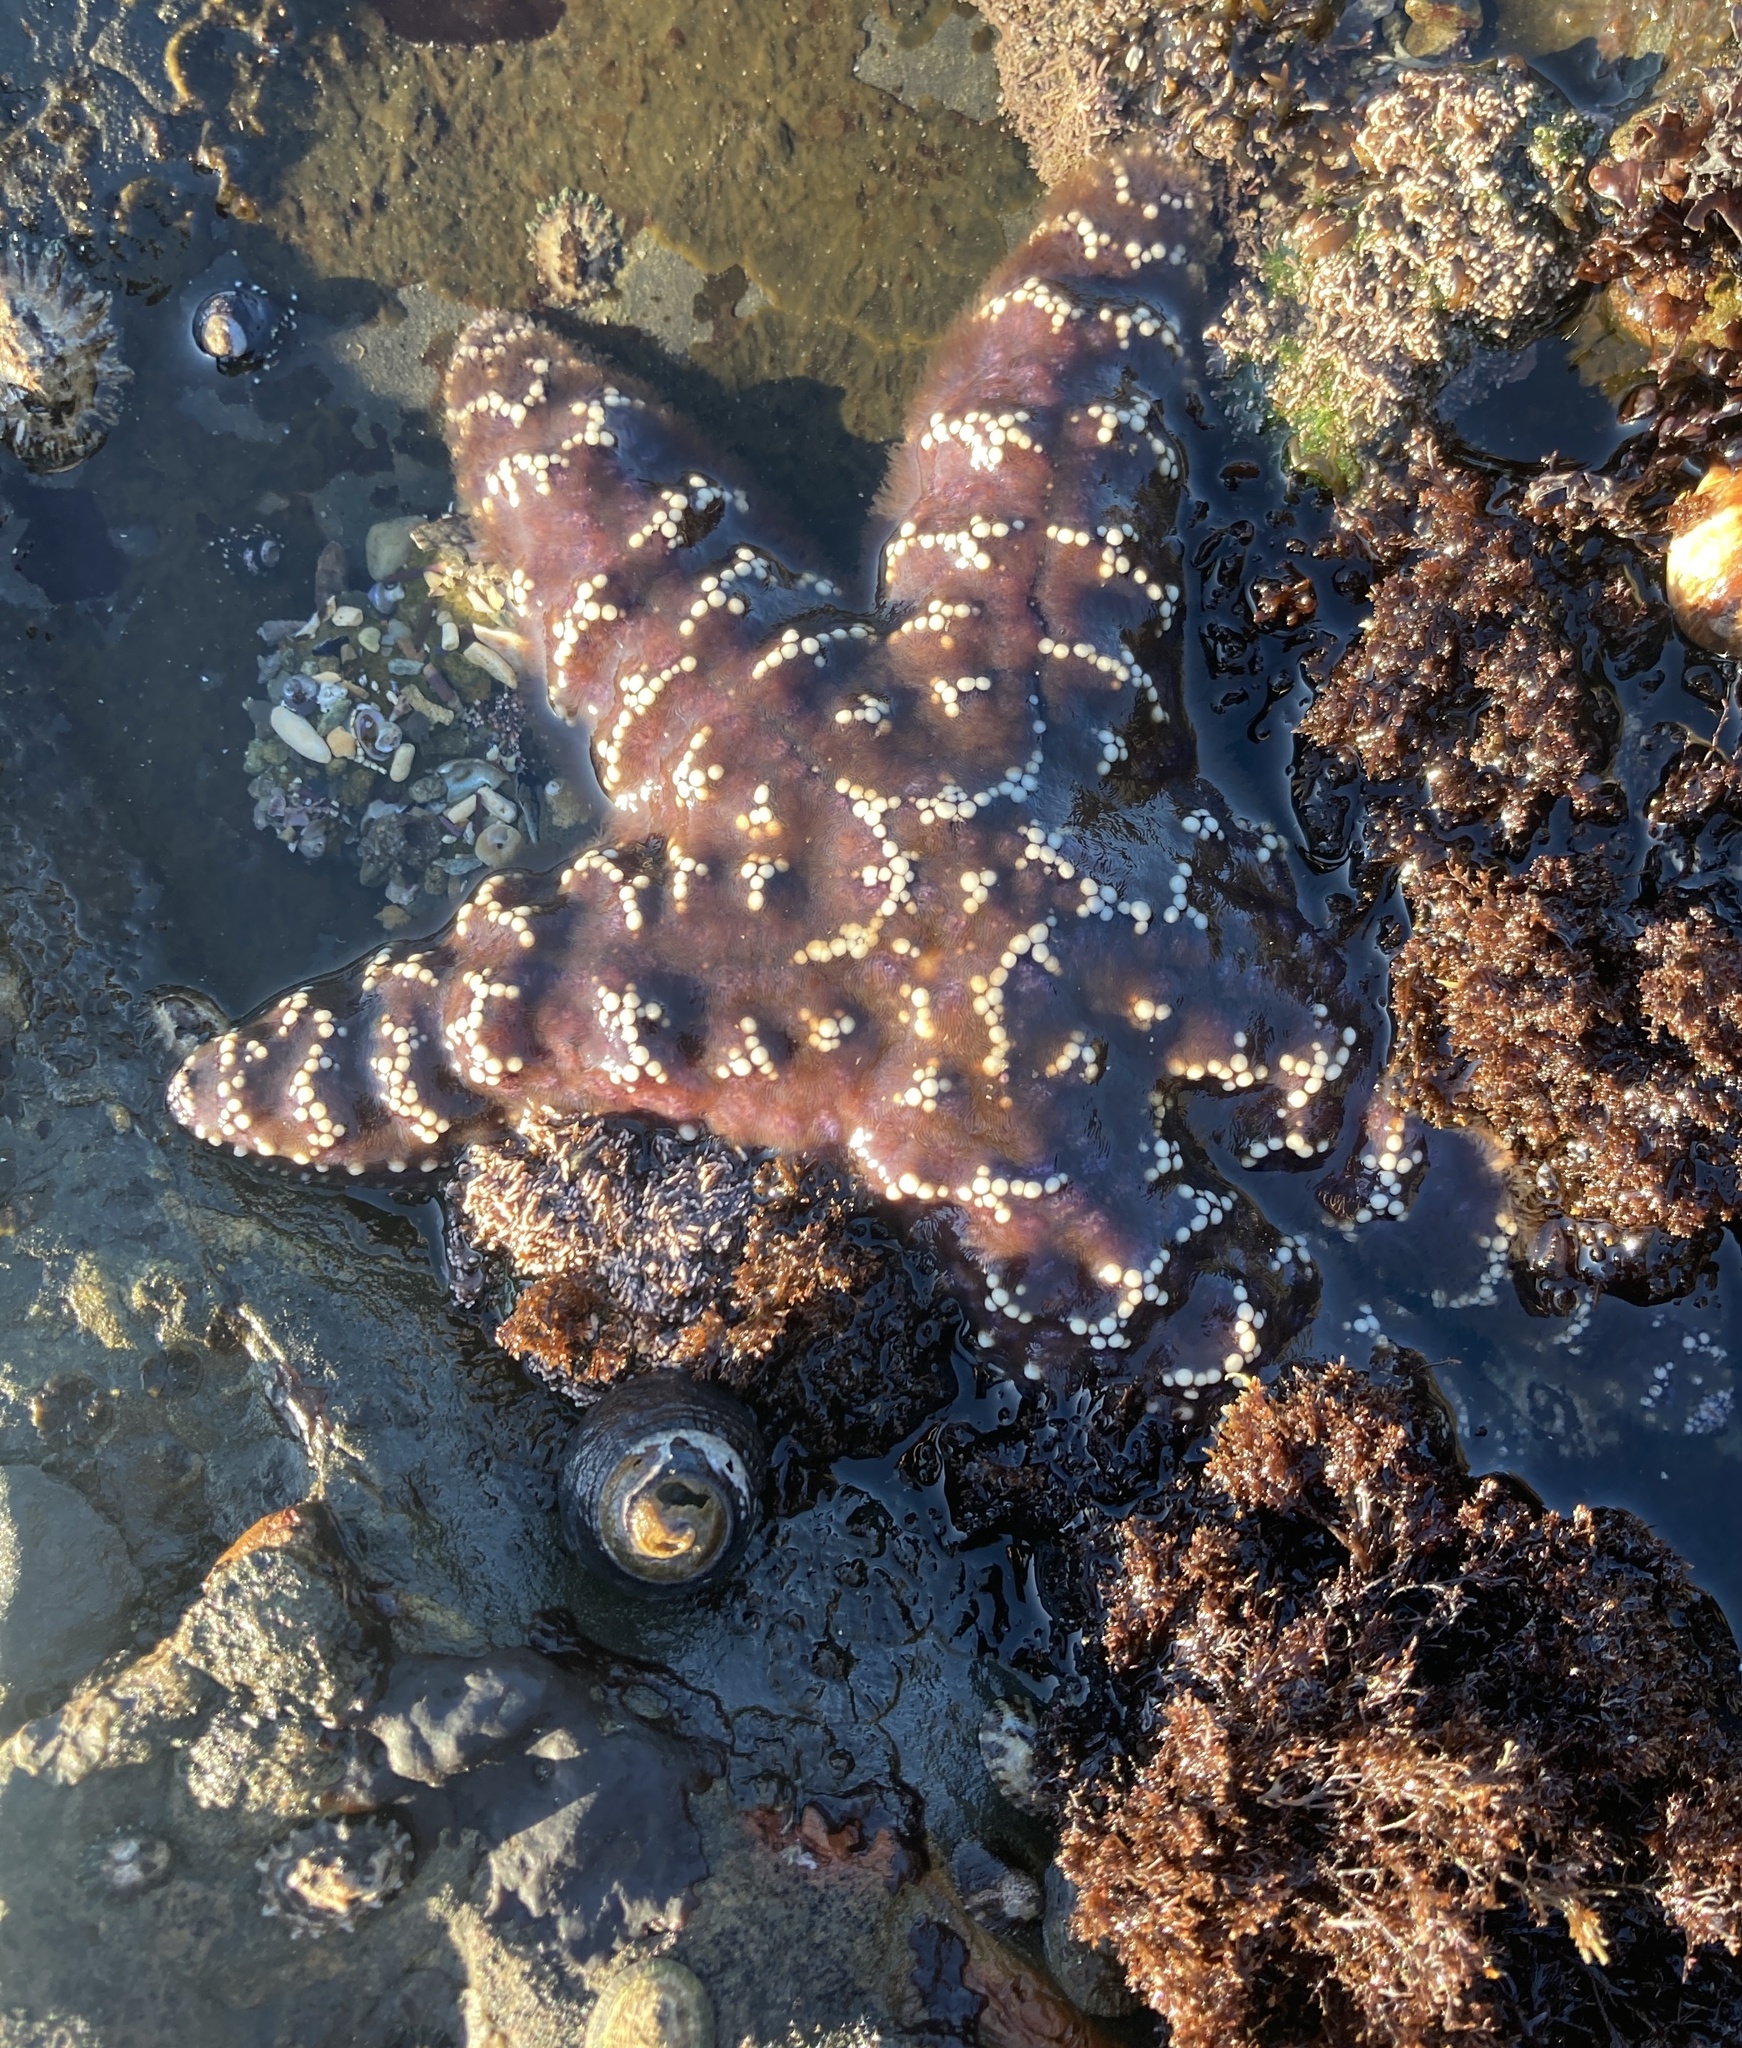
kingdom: Animalia
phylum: Echinodermata
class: Asteroidea
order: Forcipulatida
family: Asteriidae
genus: Pisaster
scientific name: Pisaster ochraceus
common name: Ochre stars
